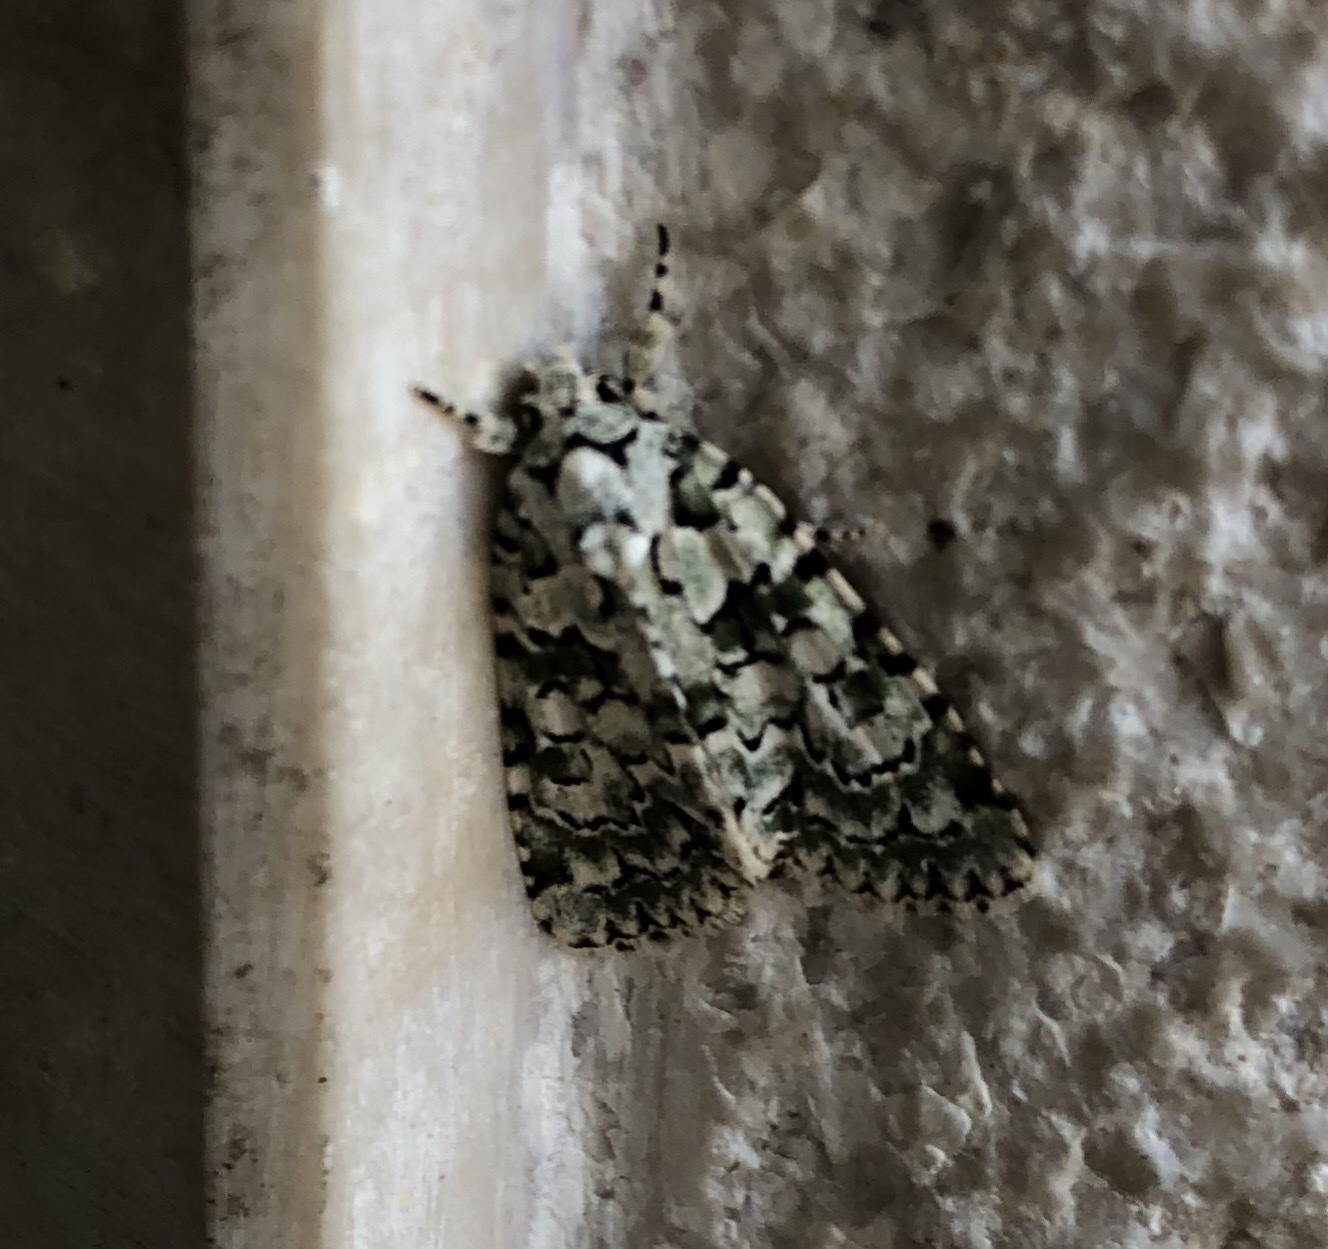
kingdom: Animalia
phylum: Arthropoda
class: Insecta
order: Lepidoptera
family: Noctuidae
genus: Nyctobrya
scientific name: Nyctobrya muralis
